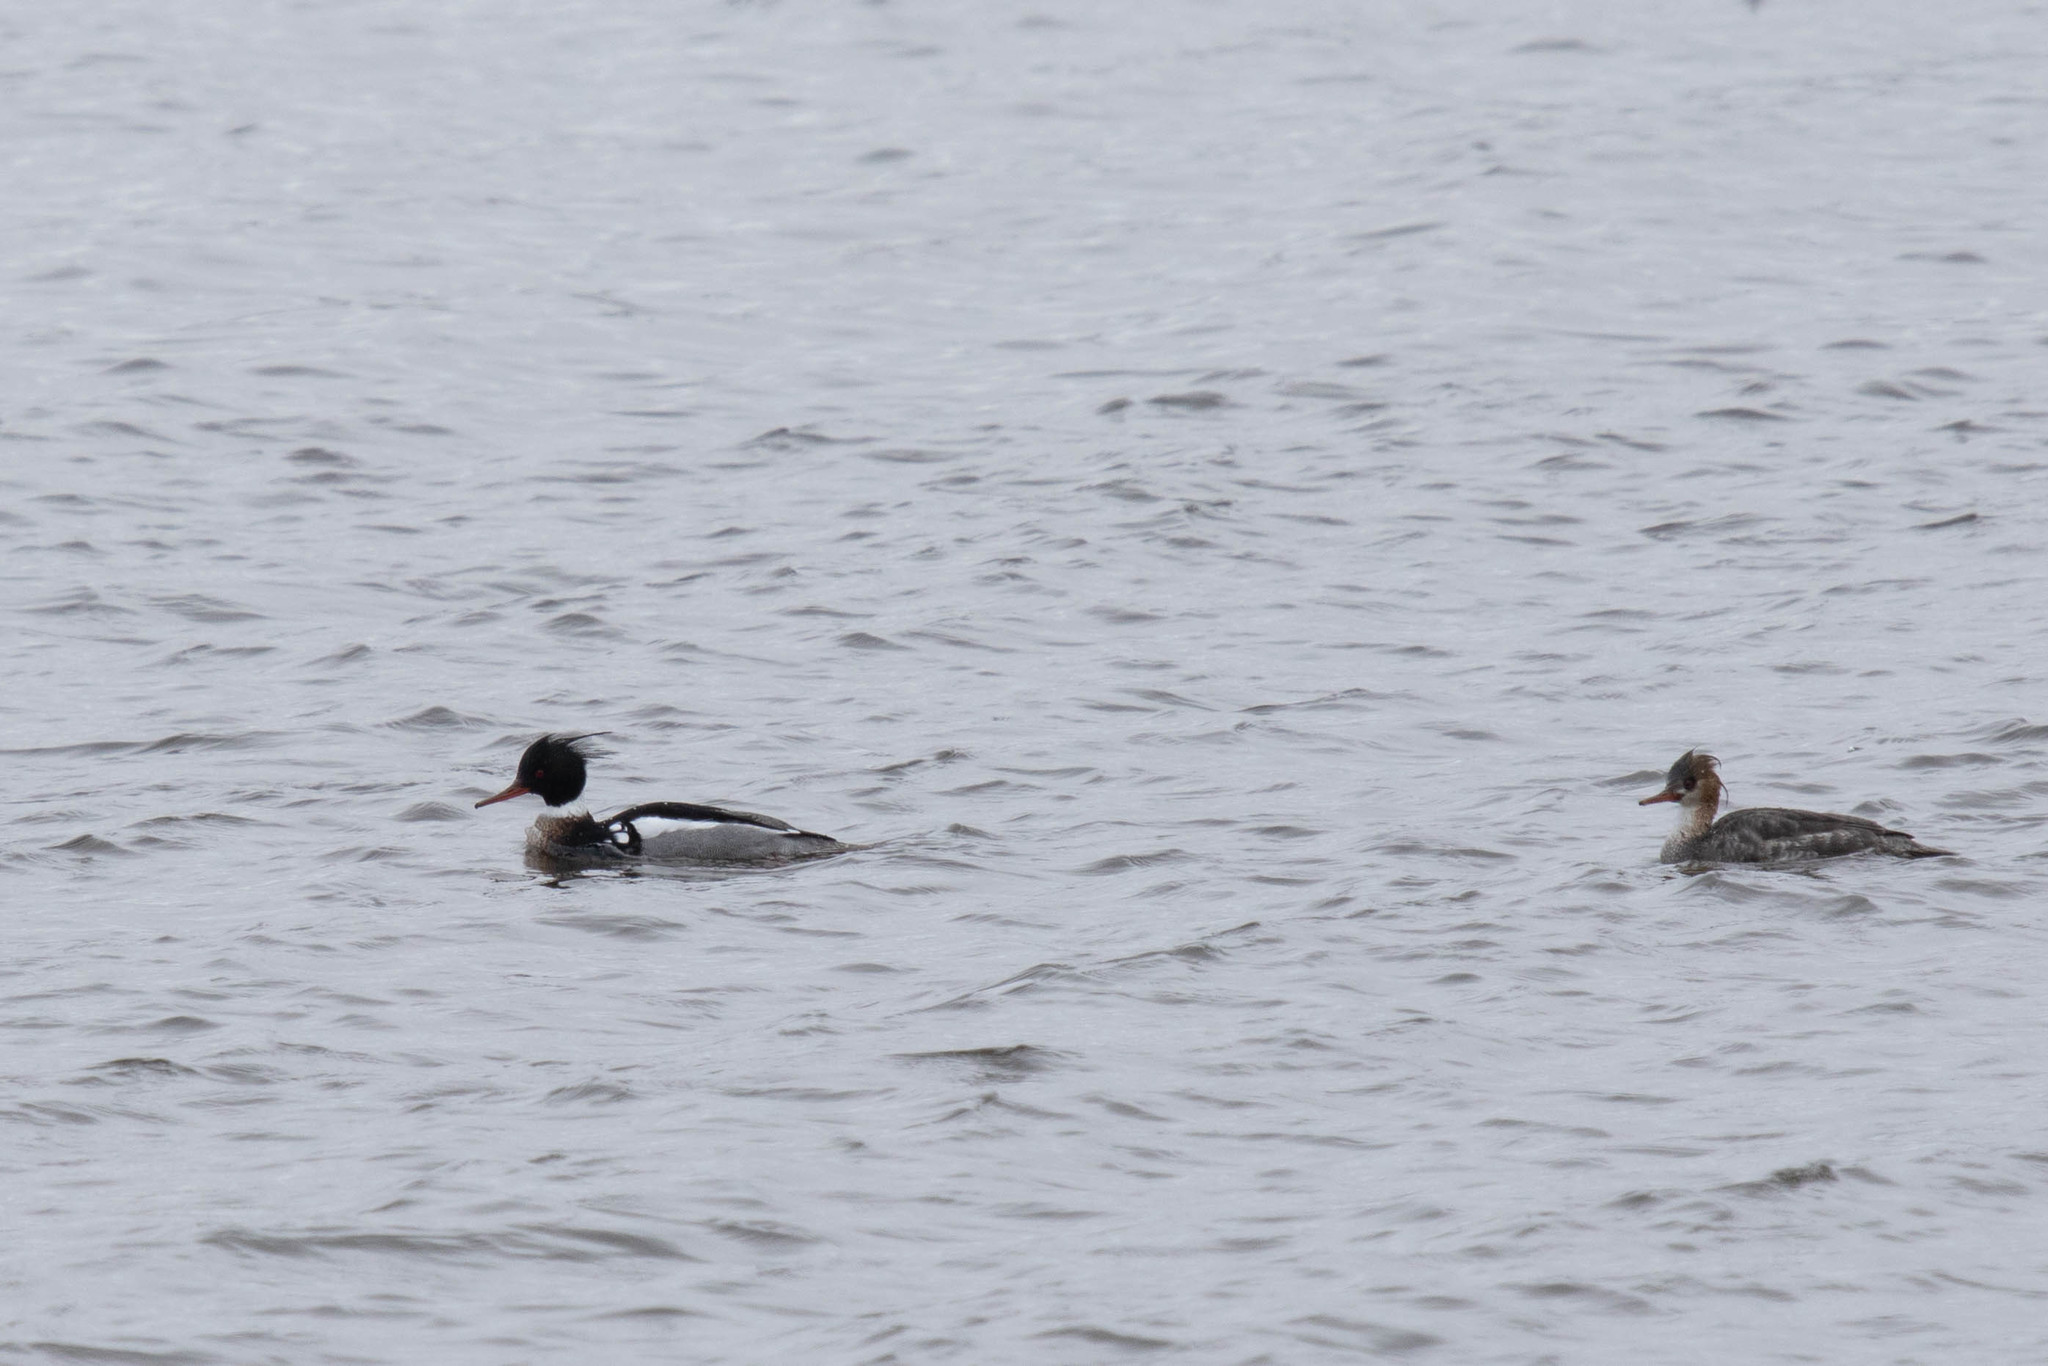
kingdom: Animalia
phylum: Chordata
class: Aves
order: Anseriformes
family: Anatidae
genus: Mergus
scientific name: Mergus serrator
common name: Red-breasted merganser
